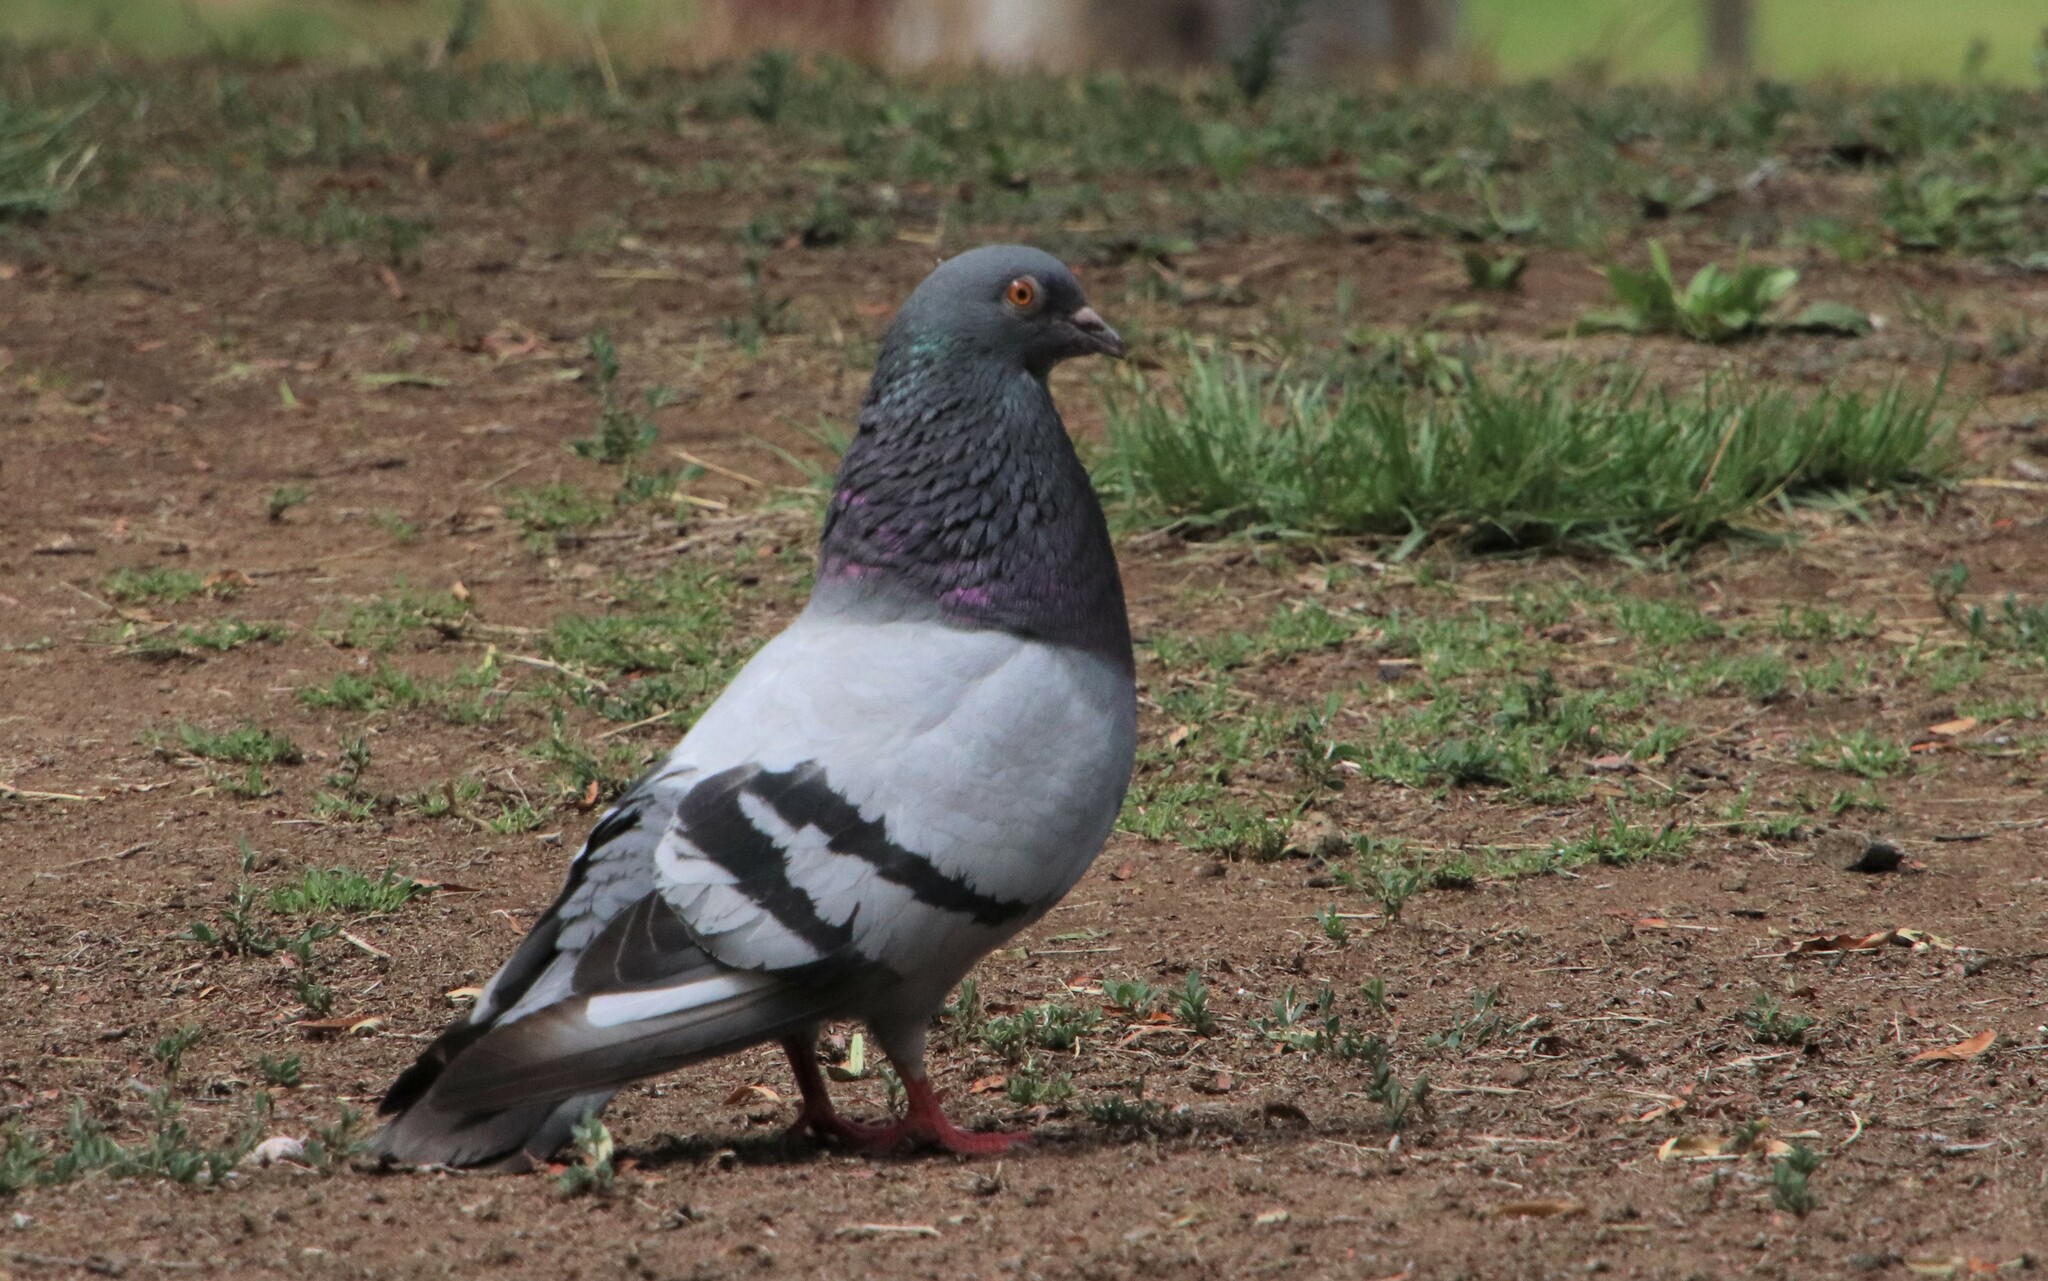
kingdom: Animalia
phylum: Chordata
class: Aves
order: Columbiformes
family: Columbidae
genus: Columba
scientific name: Columba livia
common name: Rock pigeon
